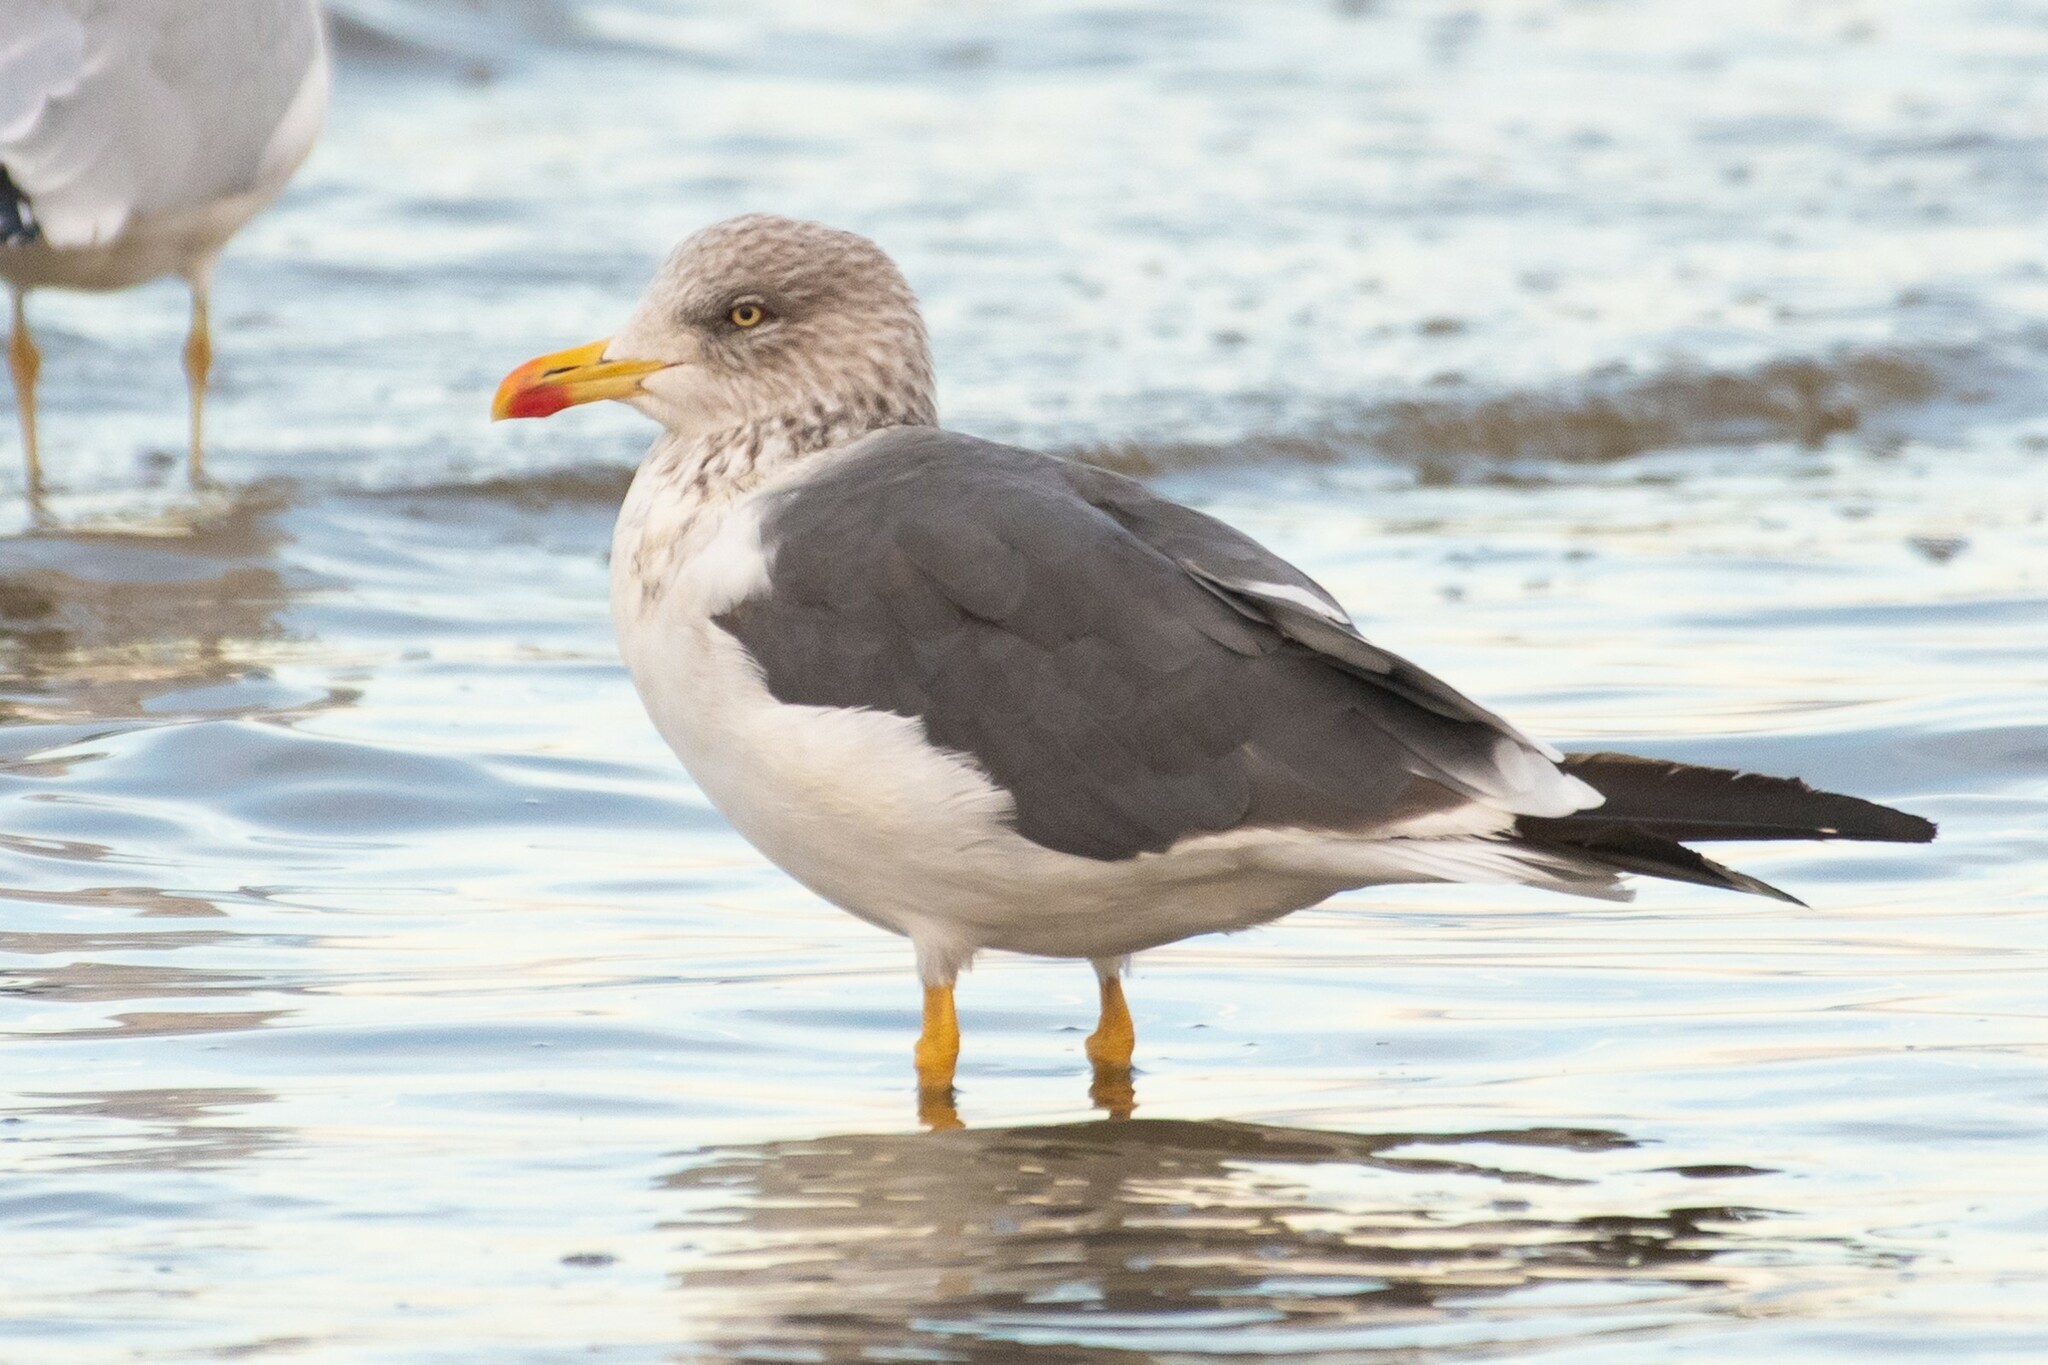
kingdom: Animalia
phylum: Chordata
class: Aves
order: Charadriiformes
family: Laridae
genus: Larus
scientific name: Larus fuscus
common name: Lesser black-backed gull
